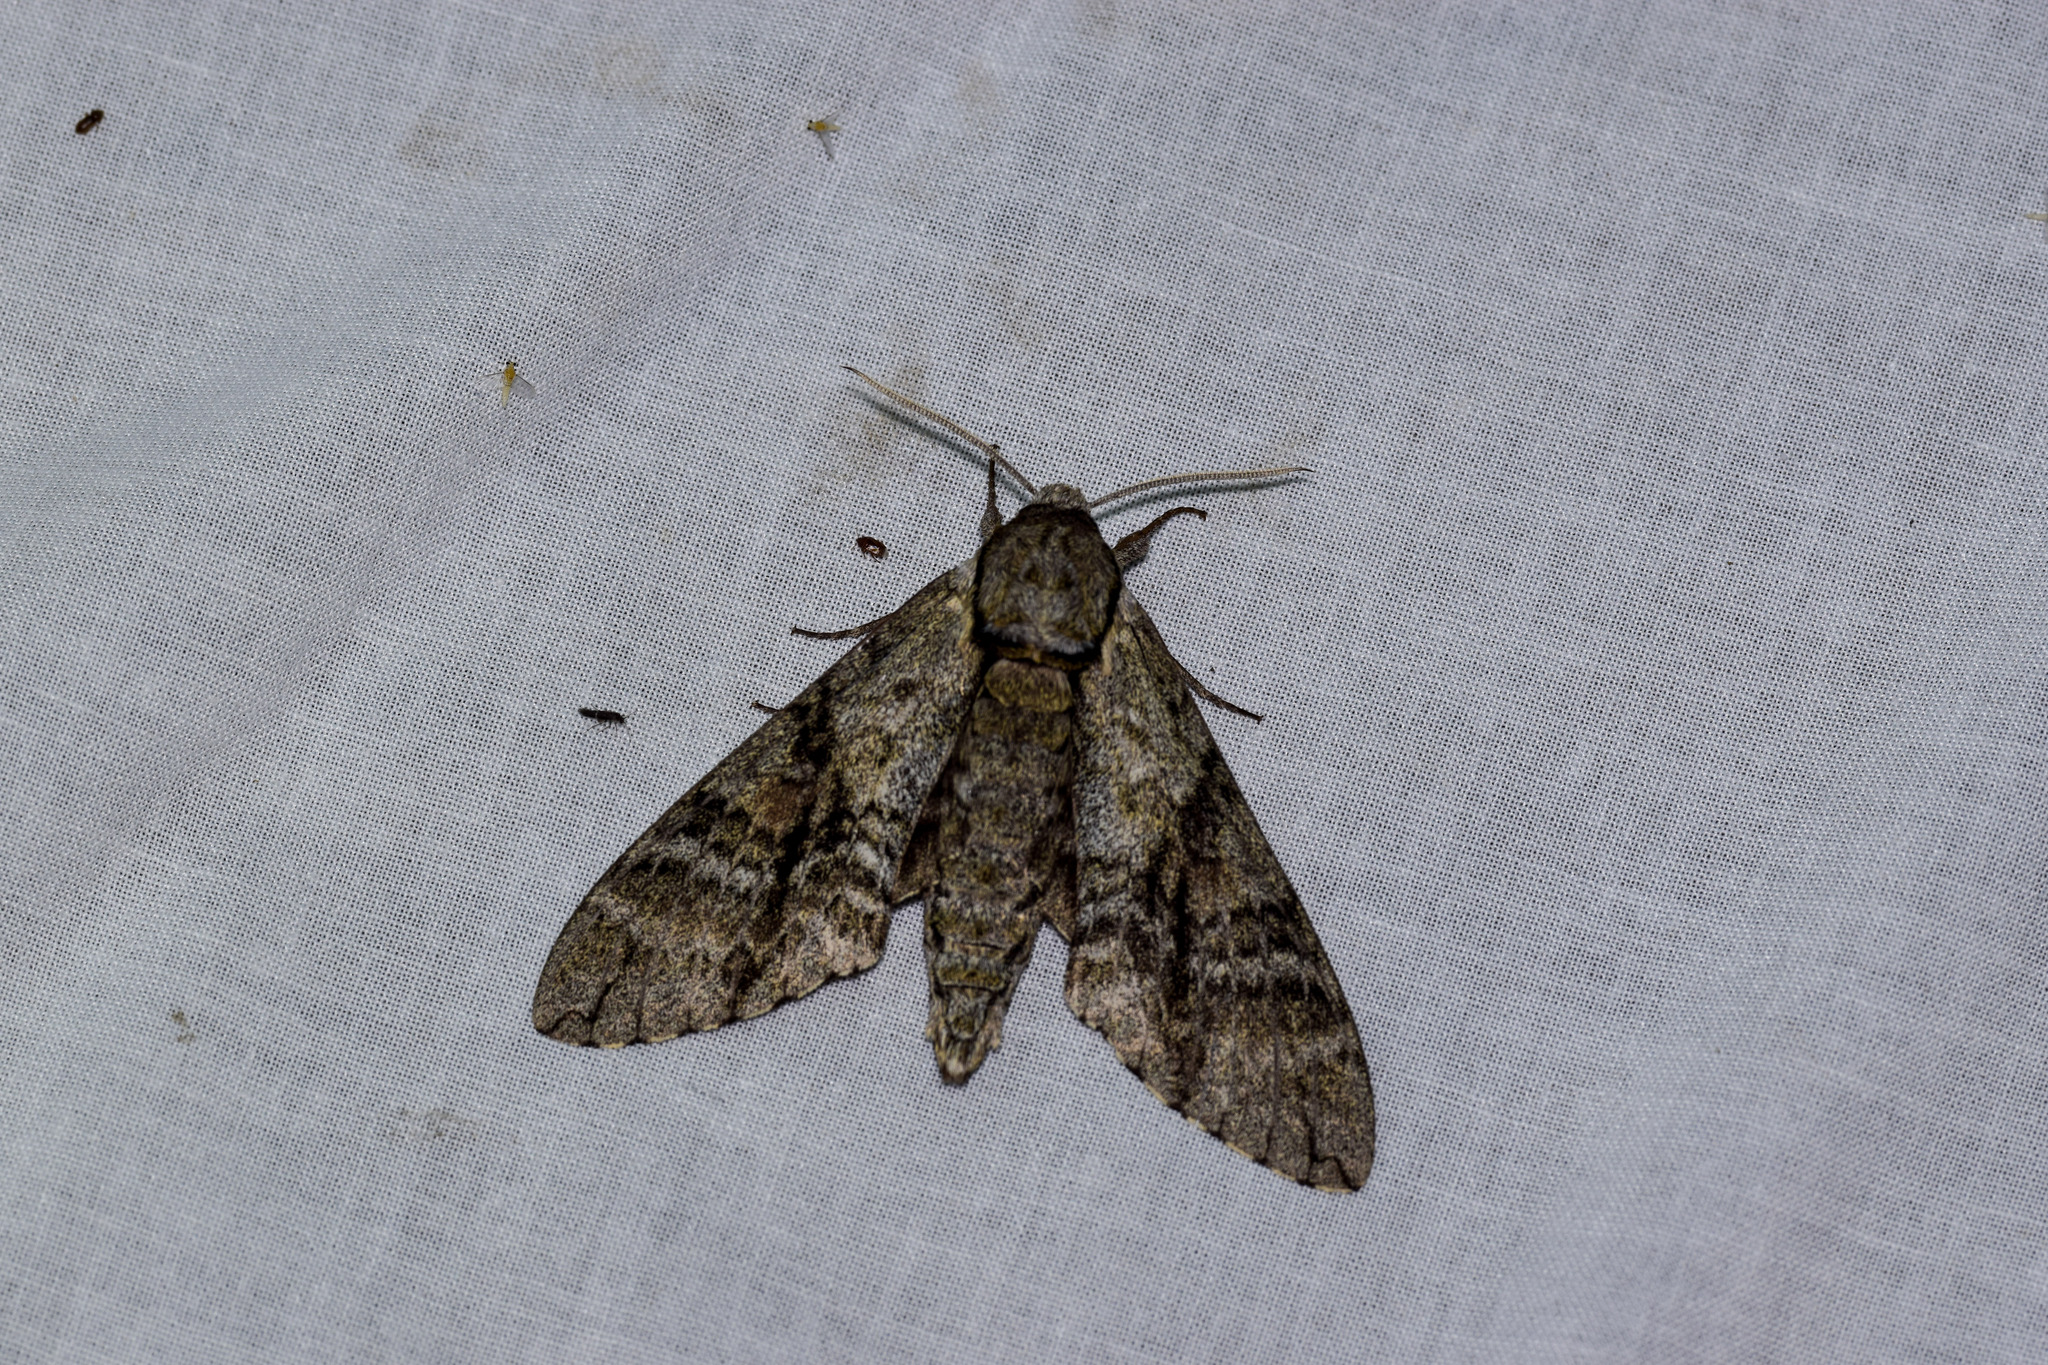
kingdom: Animalia
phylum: Arthropoda
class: Insecta
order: Lepidoptera
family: Sphingidae
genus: Manduca
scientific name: Manduca jasminearum
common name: Ash sphinx
